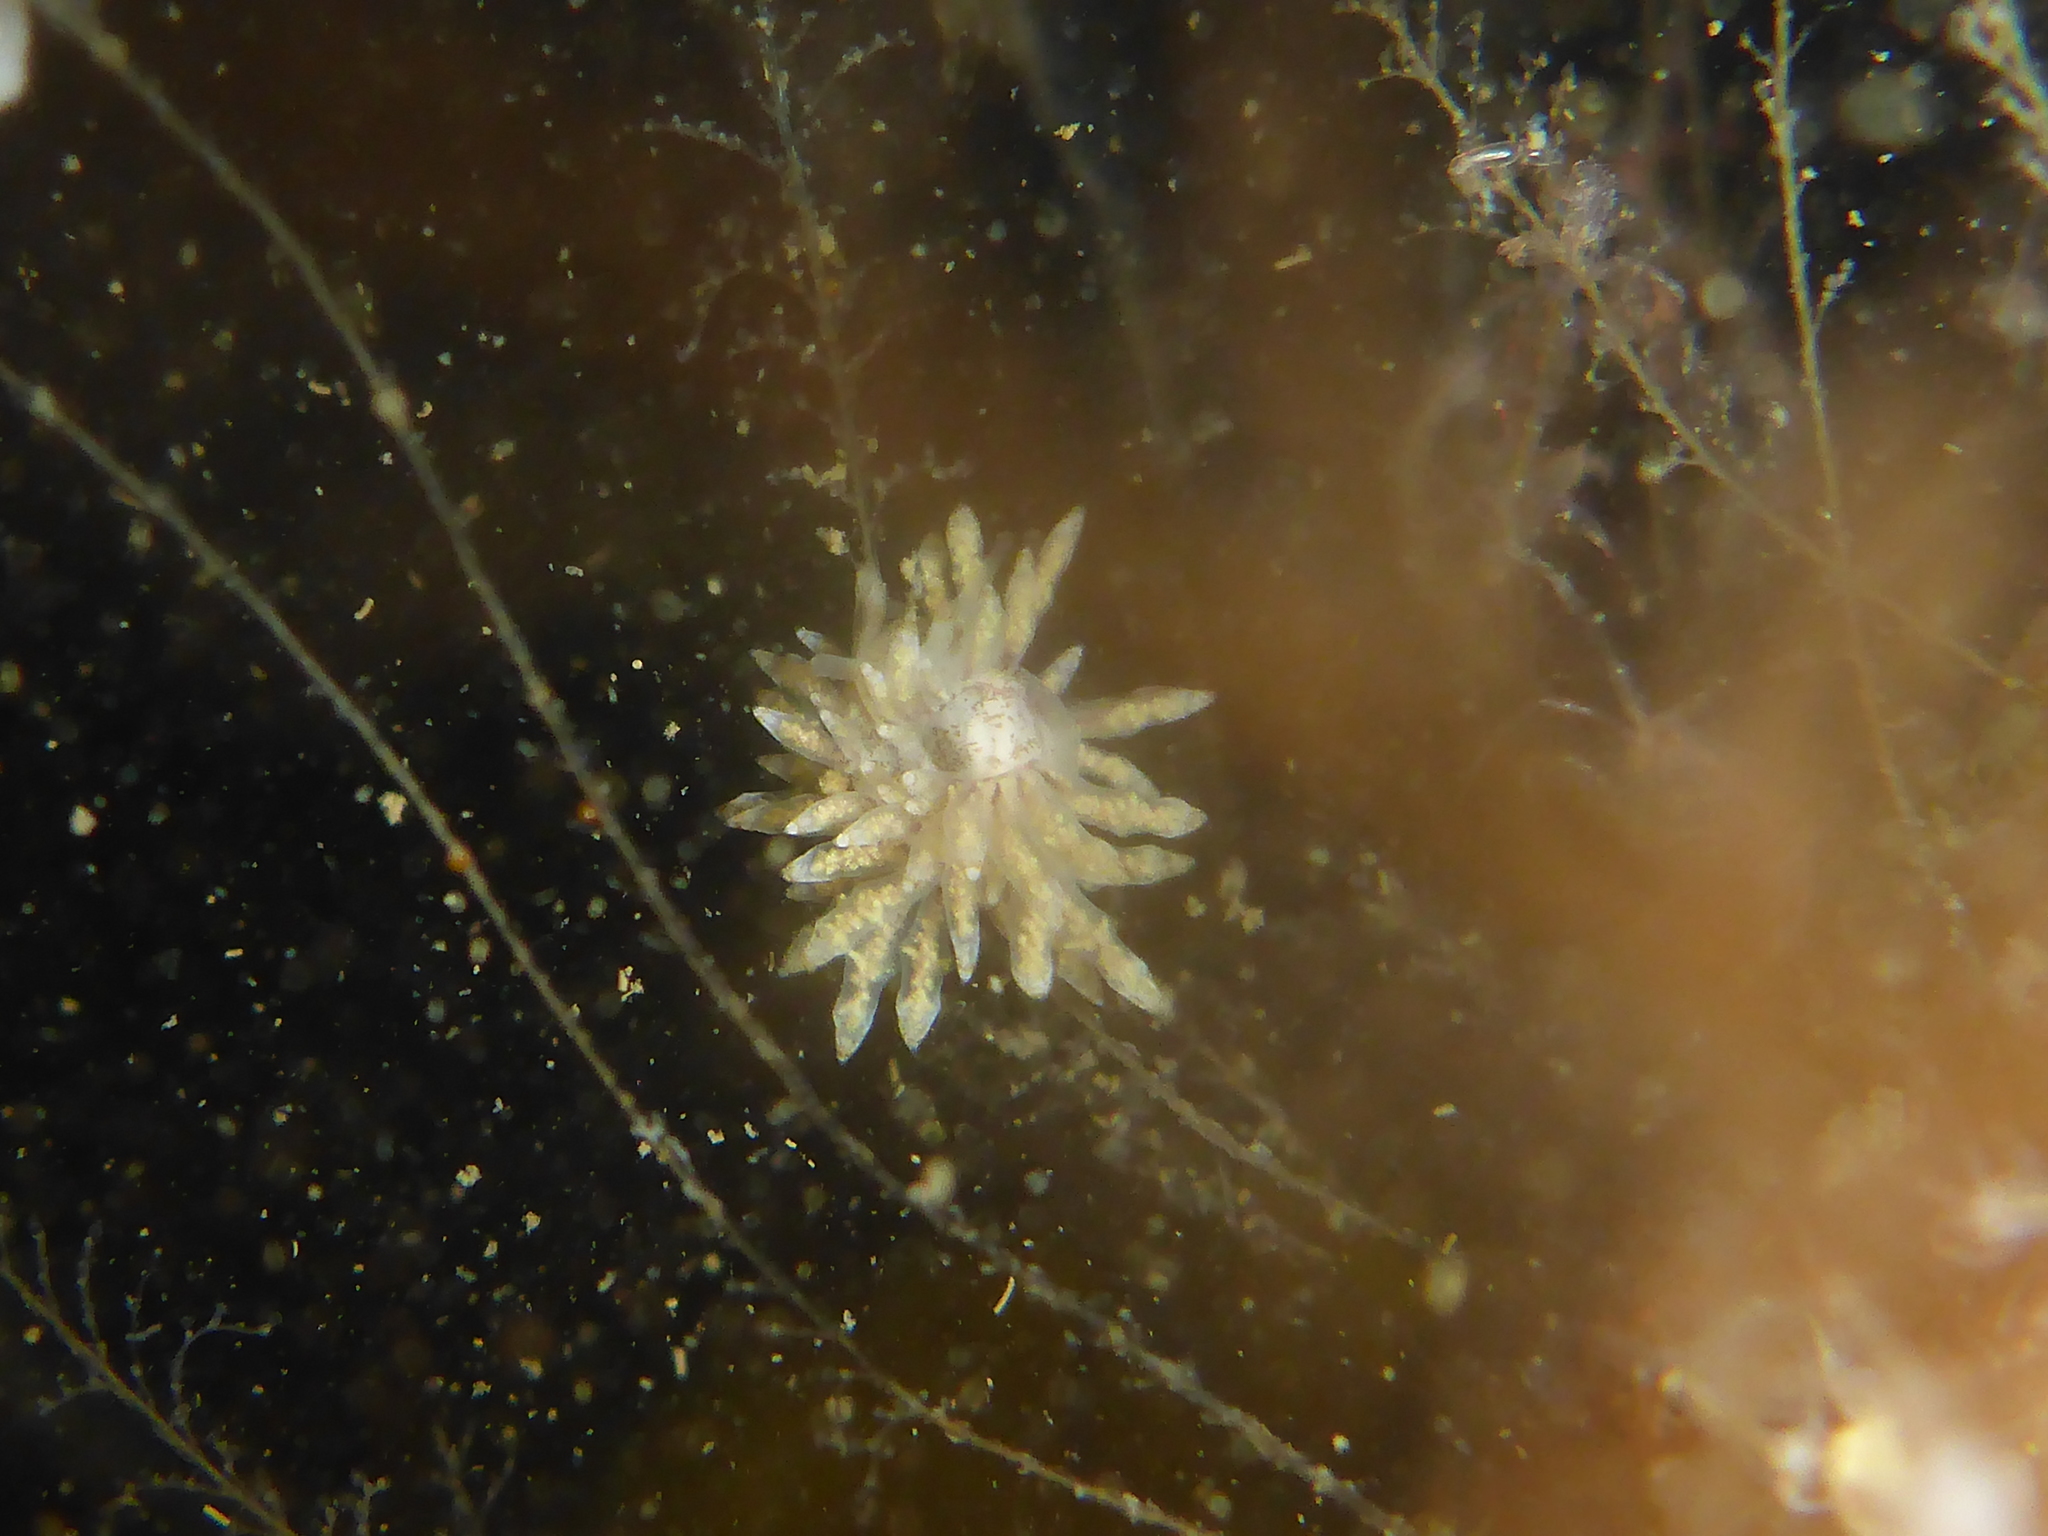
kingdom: Animalia
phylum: Mollusca
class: Gastropoda
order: Nudibranchia
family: Eubranchidae
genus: Eubranchus
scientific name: Eubranchus rustyus
